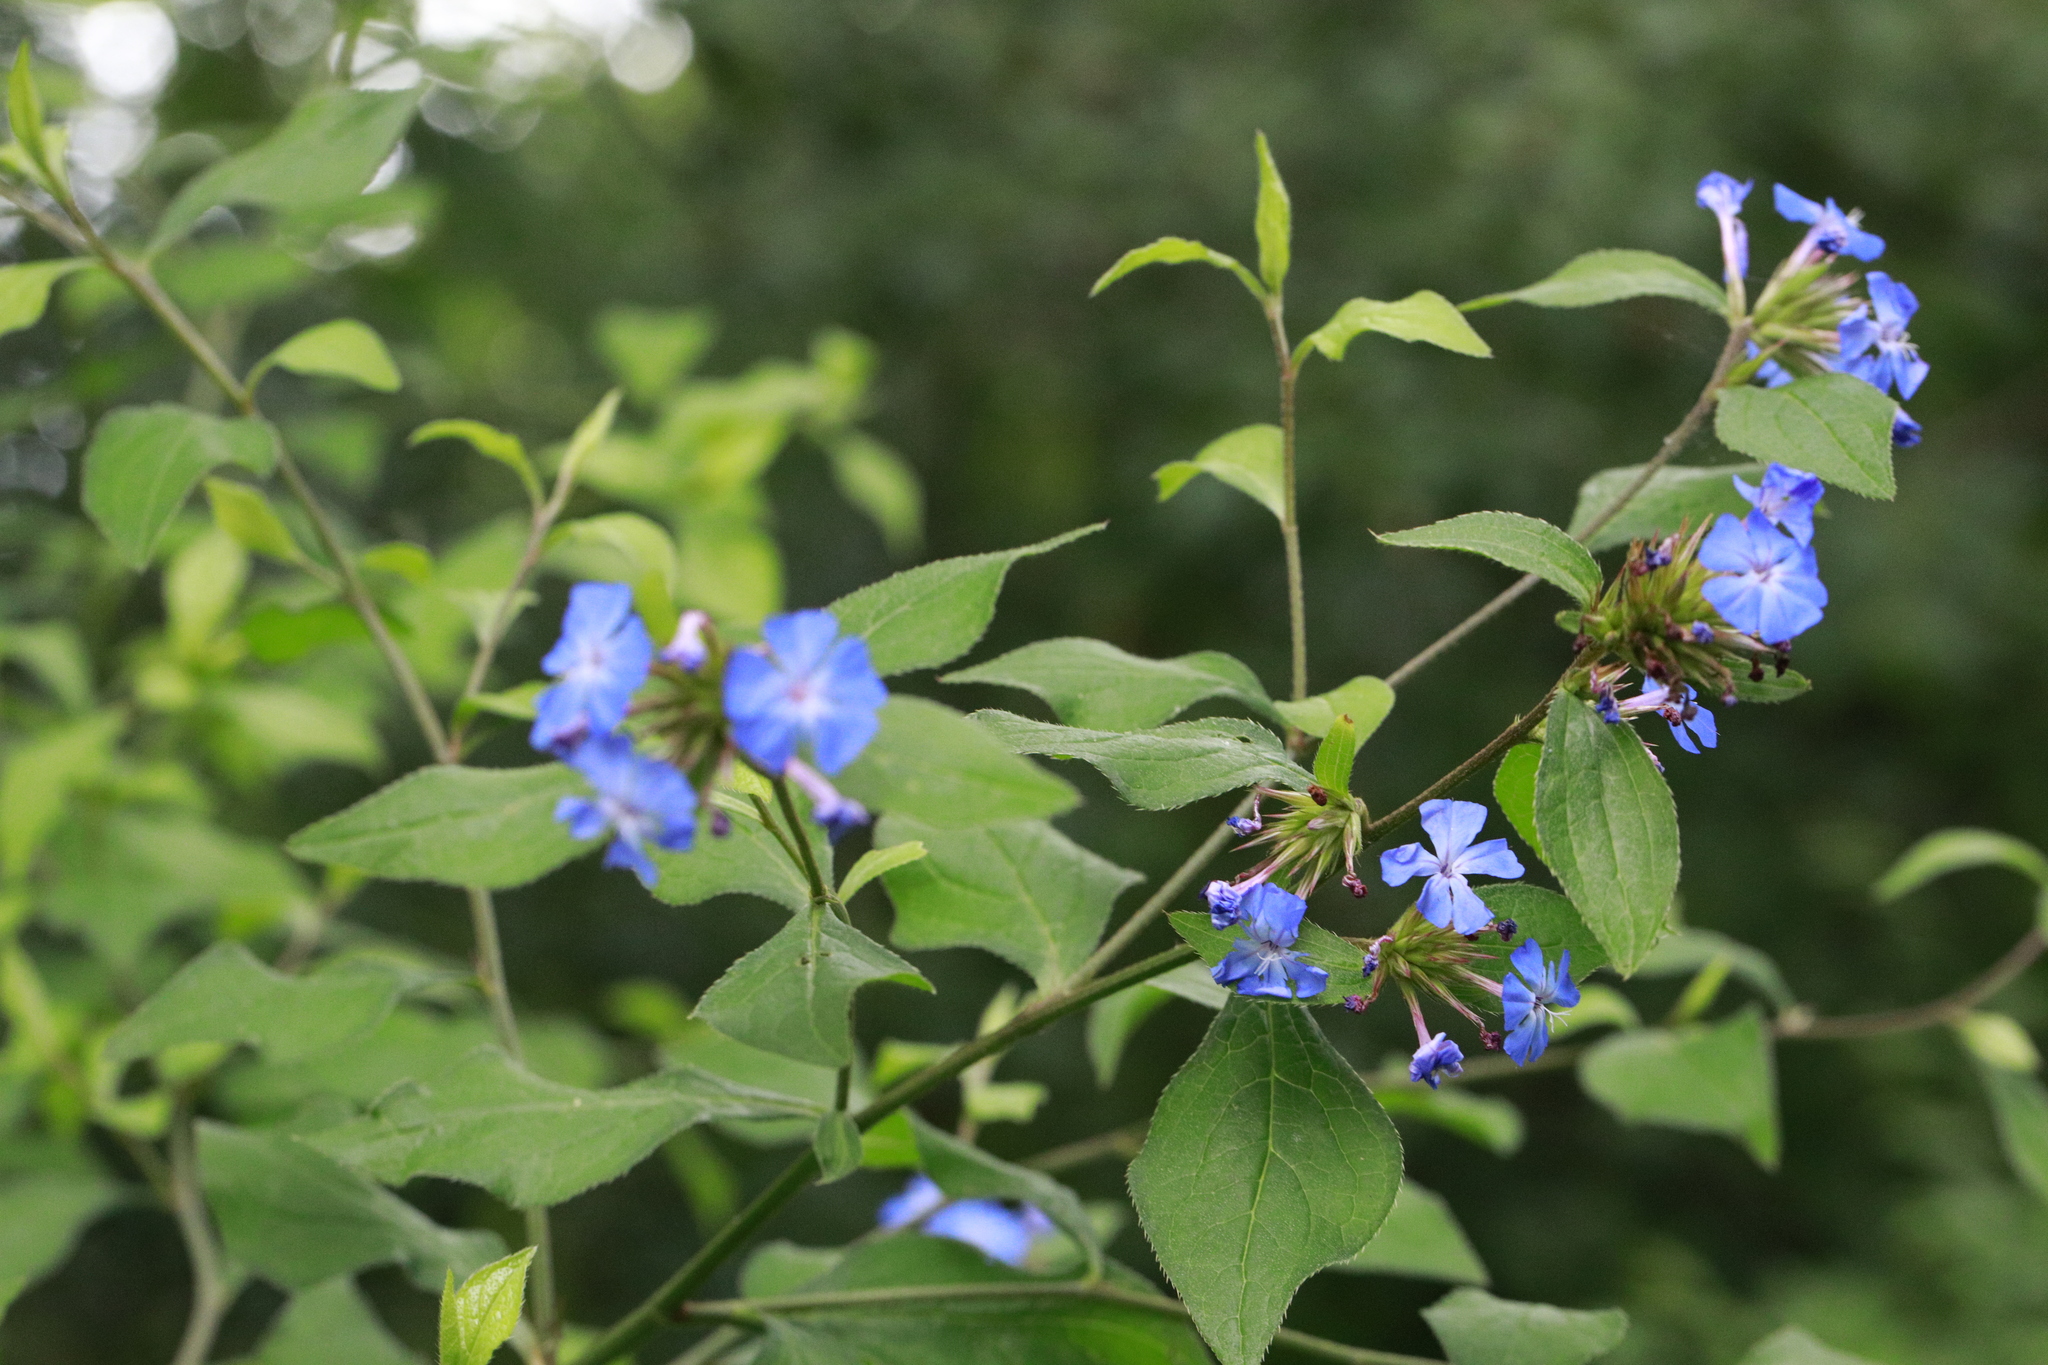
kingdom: Plantae
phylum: Tracheophyta
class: Magnoliopsida
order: Caryophyllales
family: Plumbaginaceae
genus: Ceratostigma
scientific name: Ceratostigma plumbaginoides
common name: Blue leadwood
